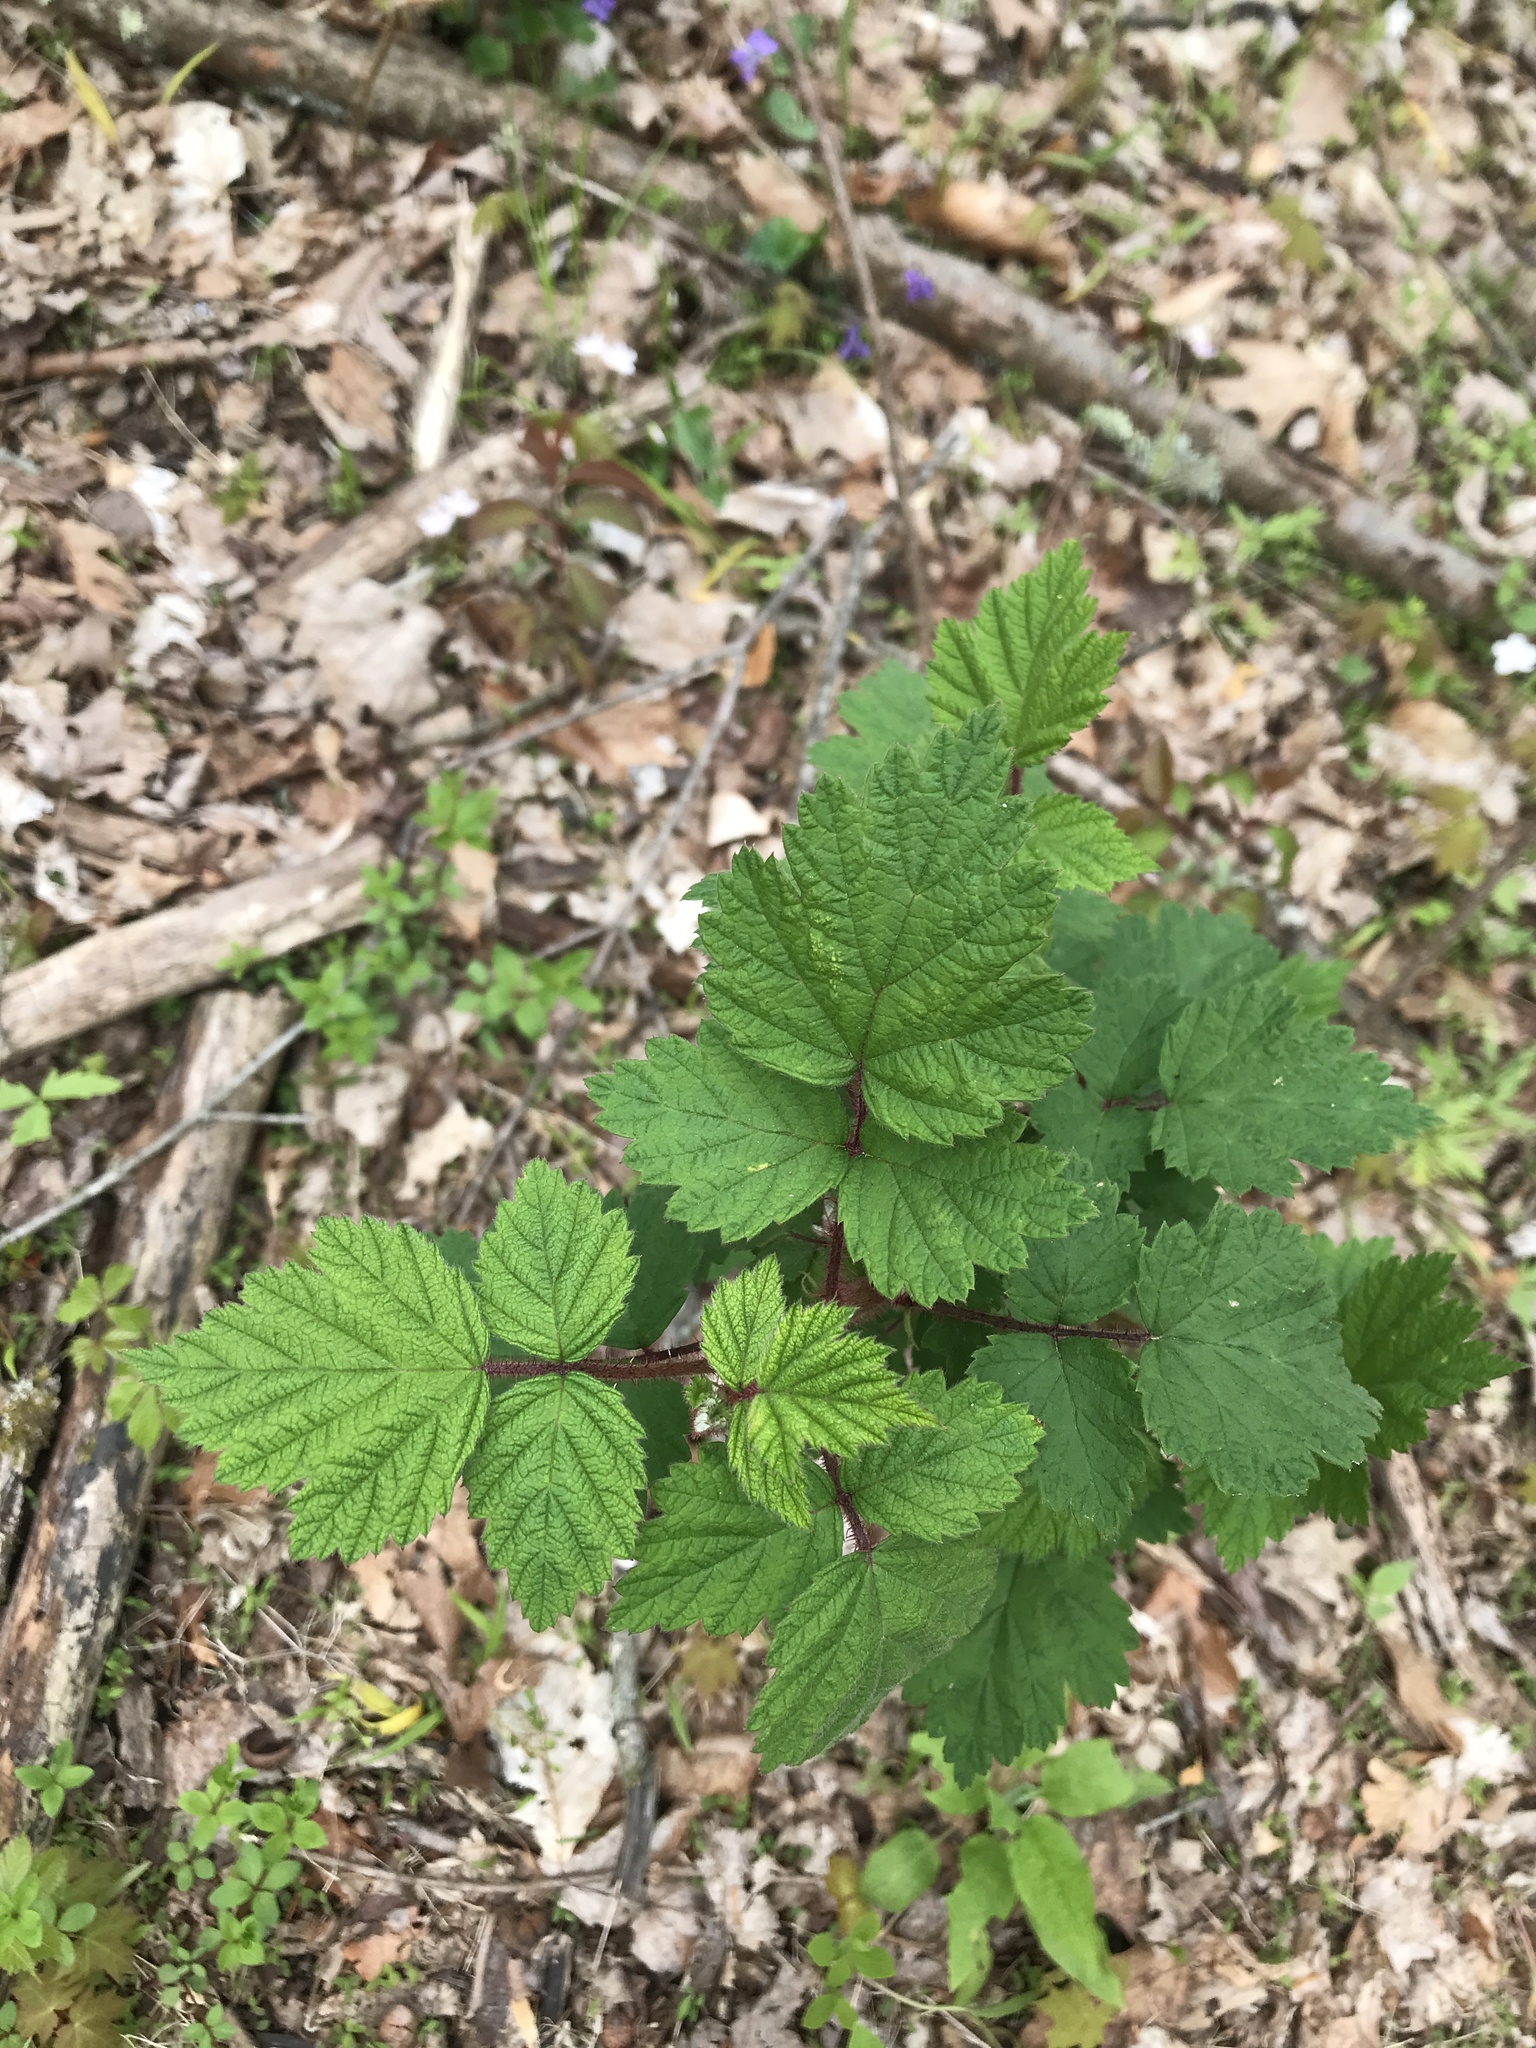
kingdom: Plantae
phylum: Tracheophyta
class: Magnoliopsida
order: Rosales
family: Rosaceae
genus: Rubus
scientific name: Rubus phoenicolasius
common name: Japanese wineberry
